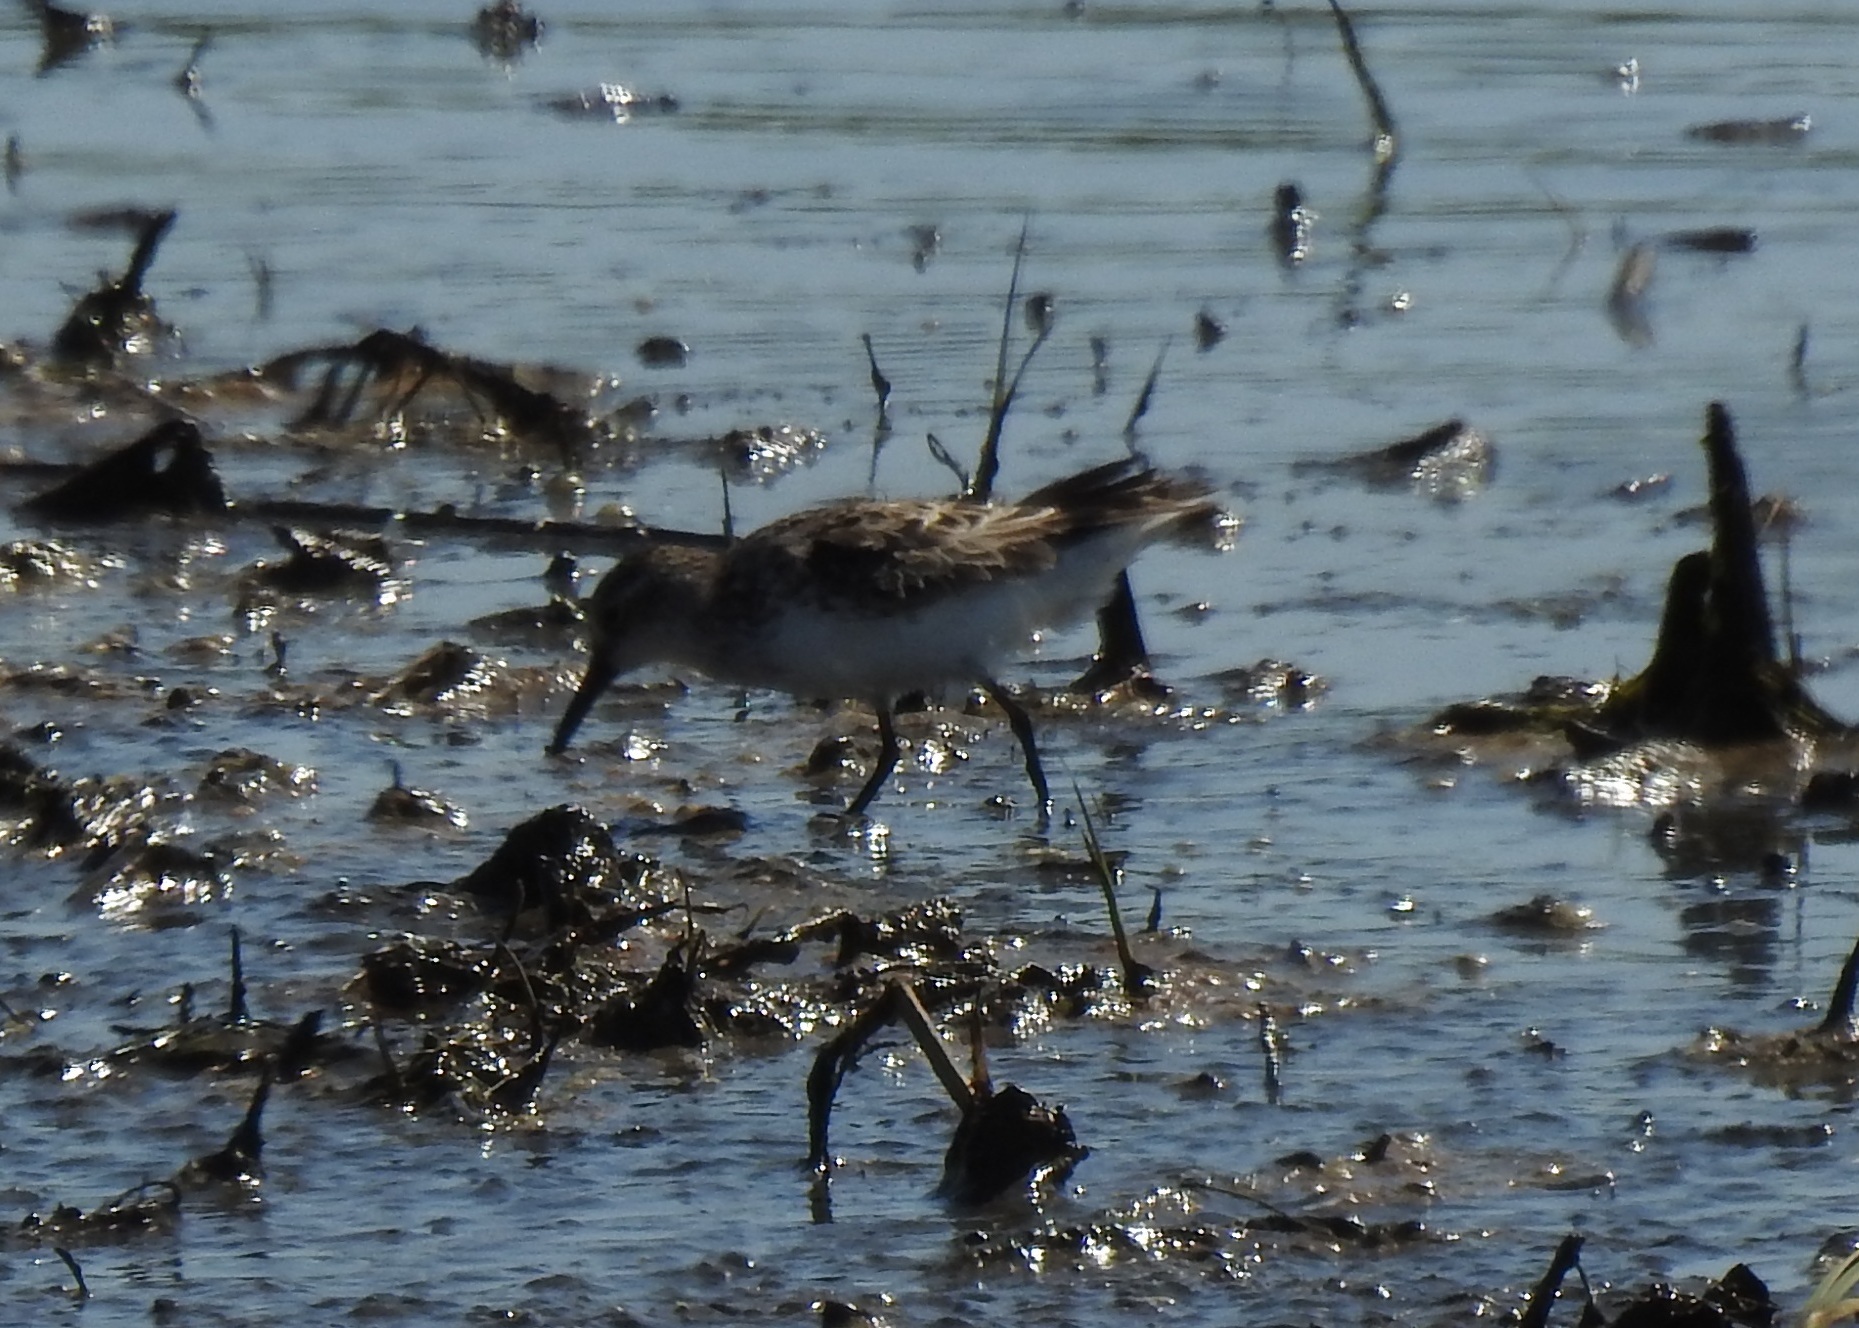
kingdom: Animalia
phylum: Chordata
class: Aves
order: Charadriiformes
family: Scolopacidae
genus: Calidris
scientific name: Calidris minutilla
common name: Least sandpiper
